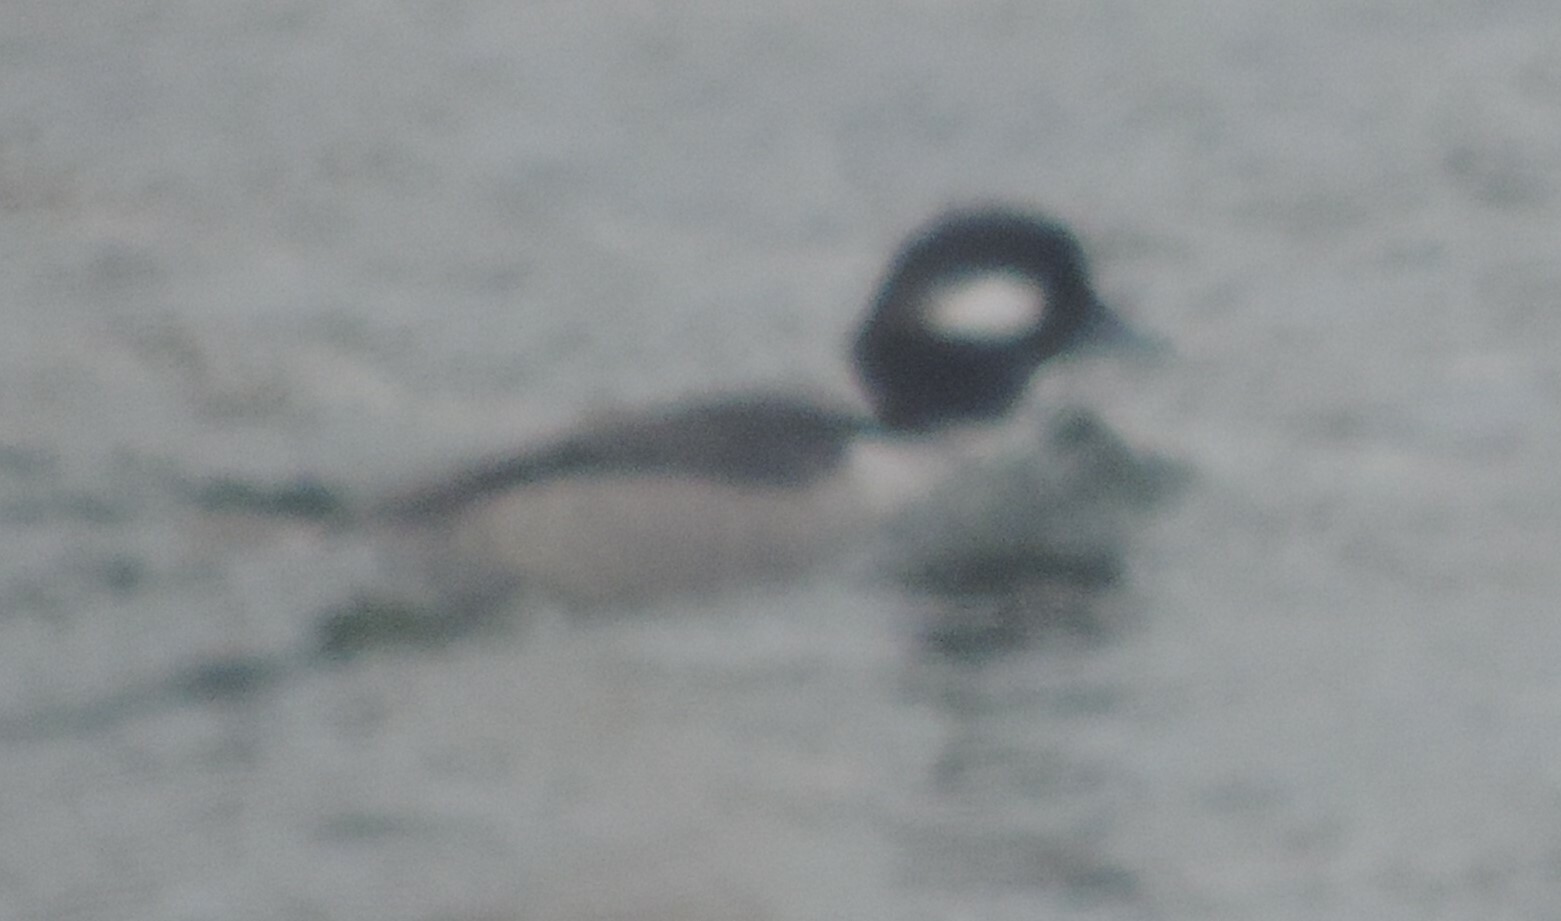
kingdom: Animalia
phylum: Chordata
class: Aves
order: Anseriformes
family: Anatidae
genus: Bucephala
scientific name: Bucephala albeola
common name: Bufflehead
